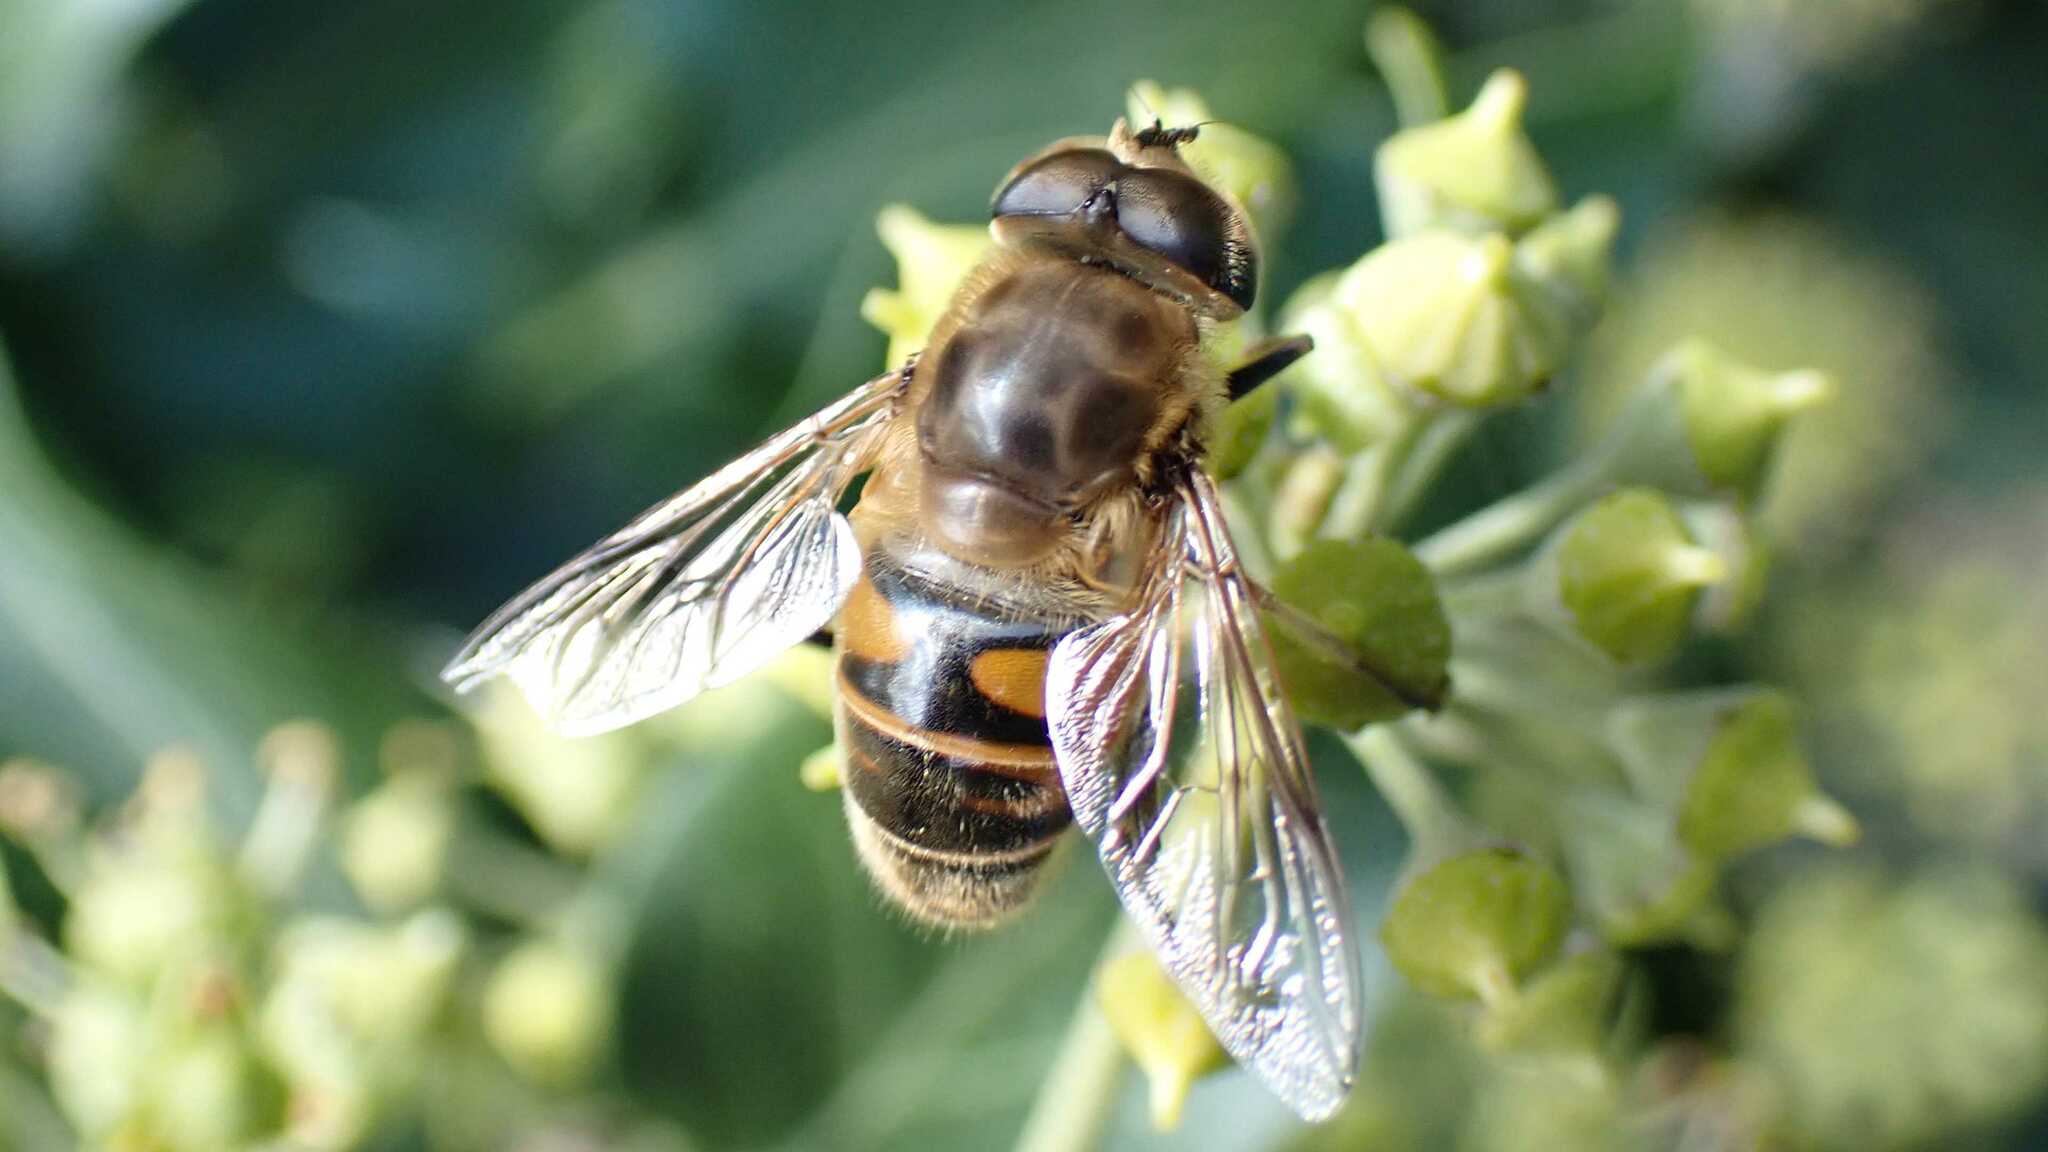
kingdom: Animalia
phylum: Arthropoda
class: Insecta
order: Diptera
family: Syrphidae
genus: Eristalis
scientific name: Eristalis tenax
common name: Drone fly
